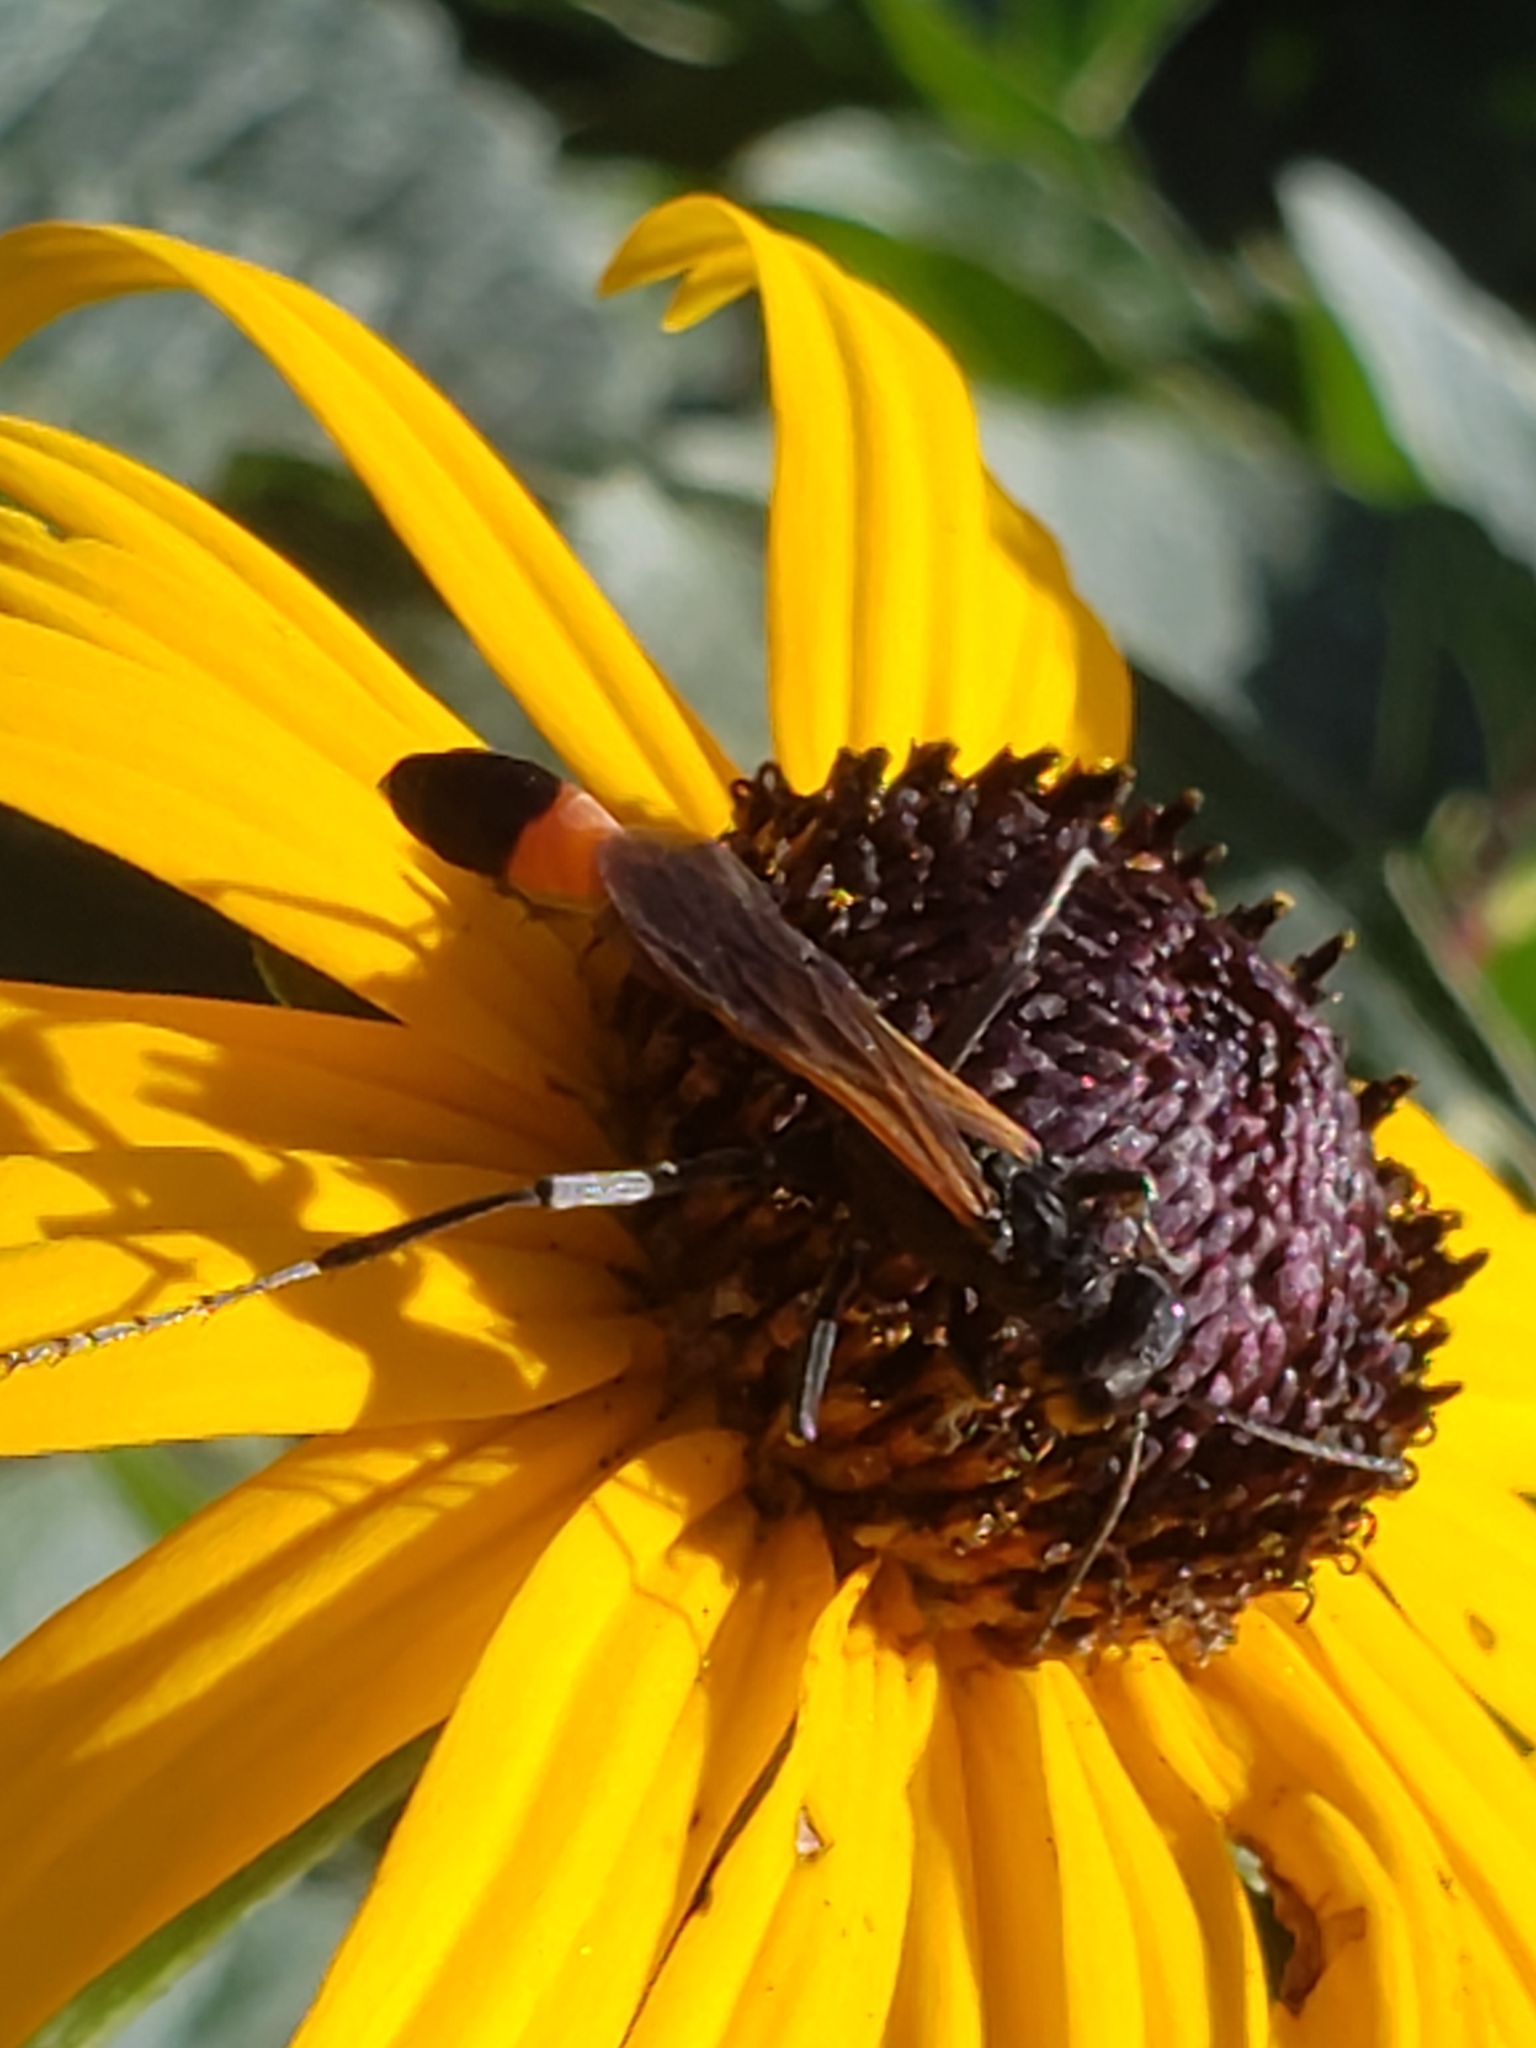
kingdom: Animalia
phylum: Arthropoda
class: Insecta
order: Hymenoptera
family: Sphecidae
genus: Ammophila
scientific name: Ammophila pictipennis
